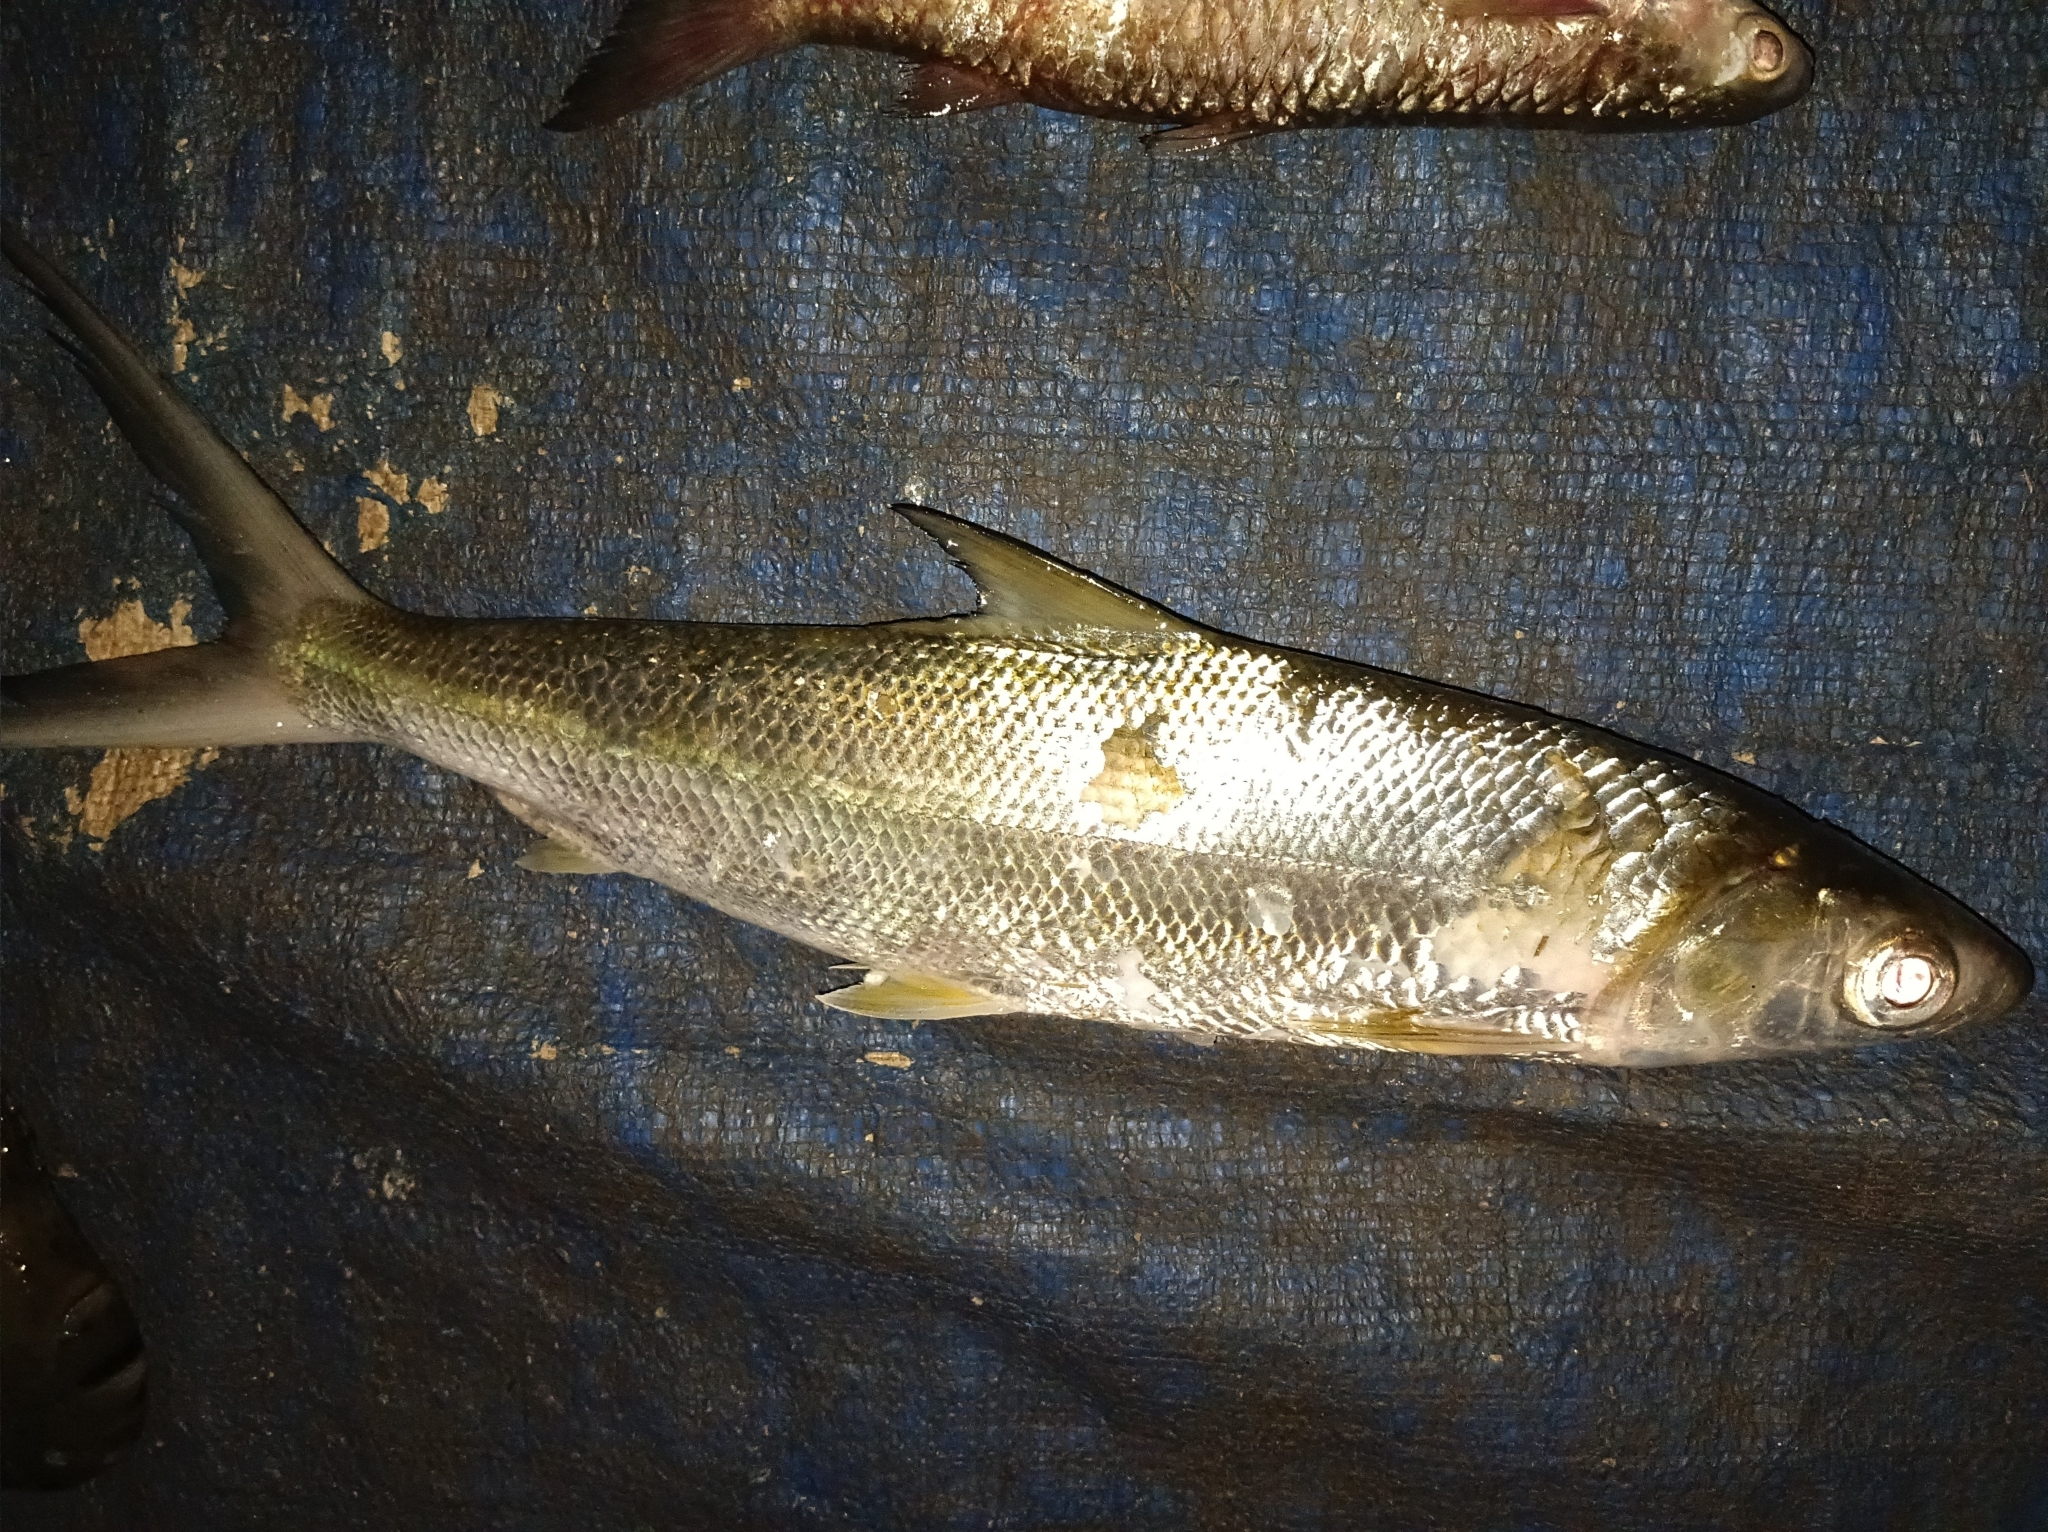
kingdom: Animalia
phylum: Chordata
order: Gonorynchiformes
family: Chanidae
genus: Chanos
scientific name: Chanos chanos
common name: Milkfish
